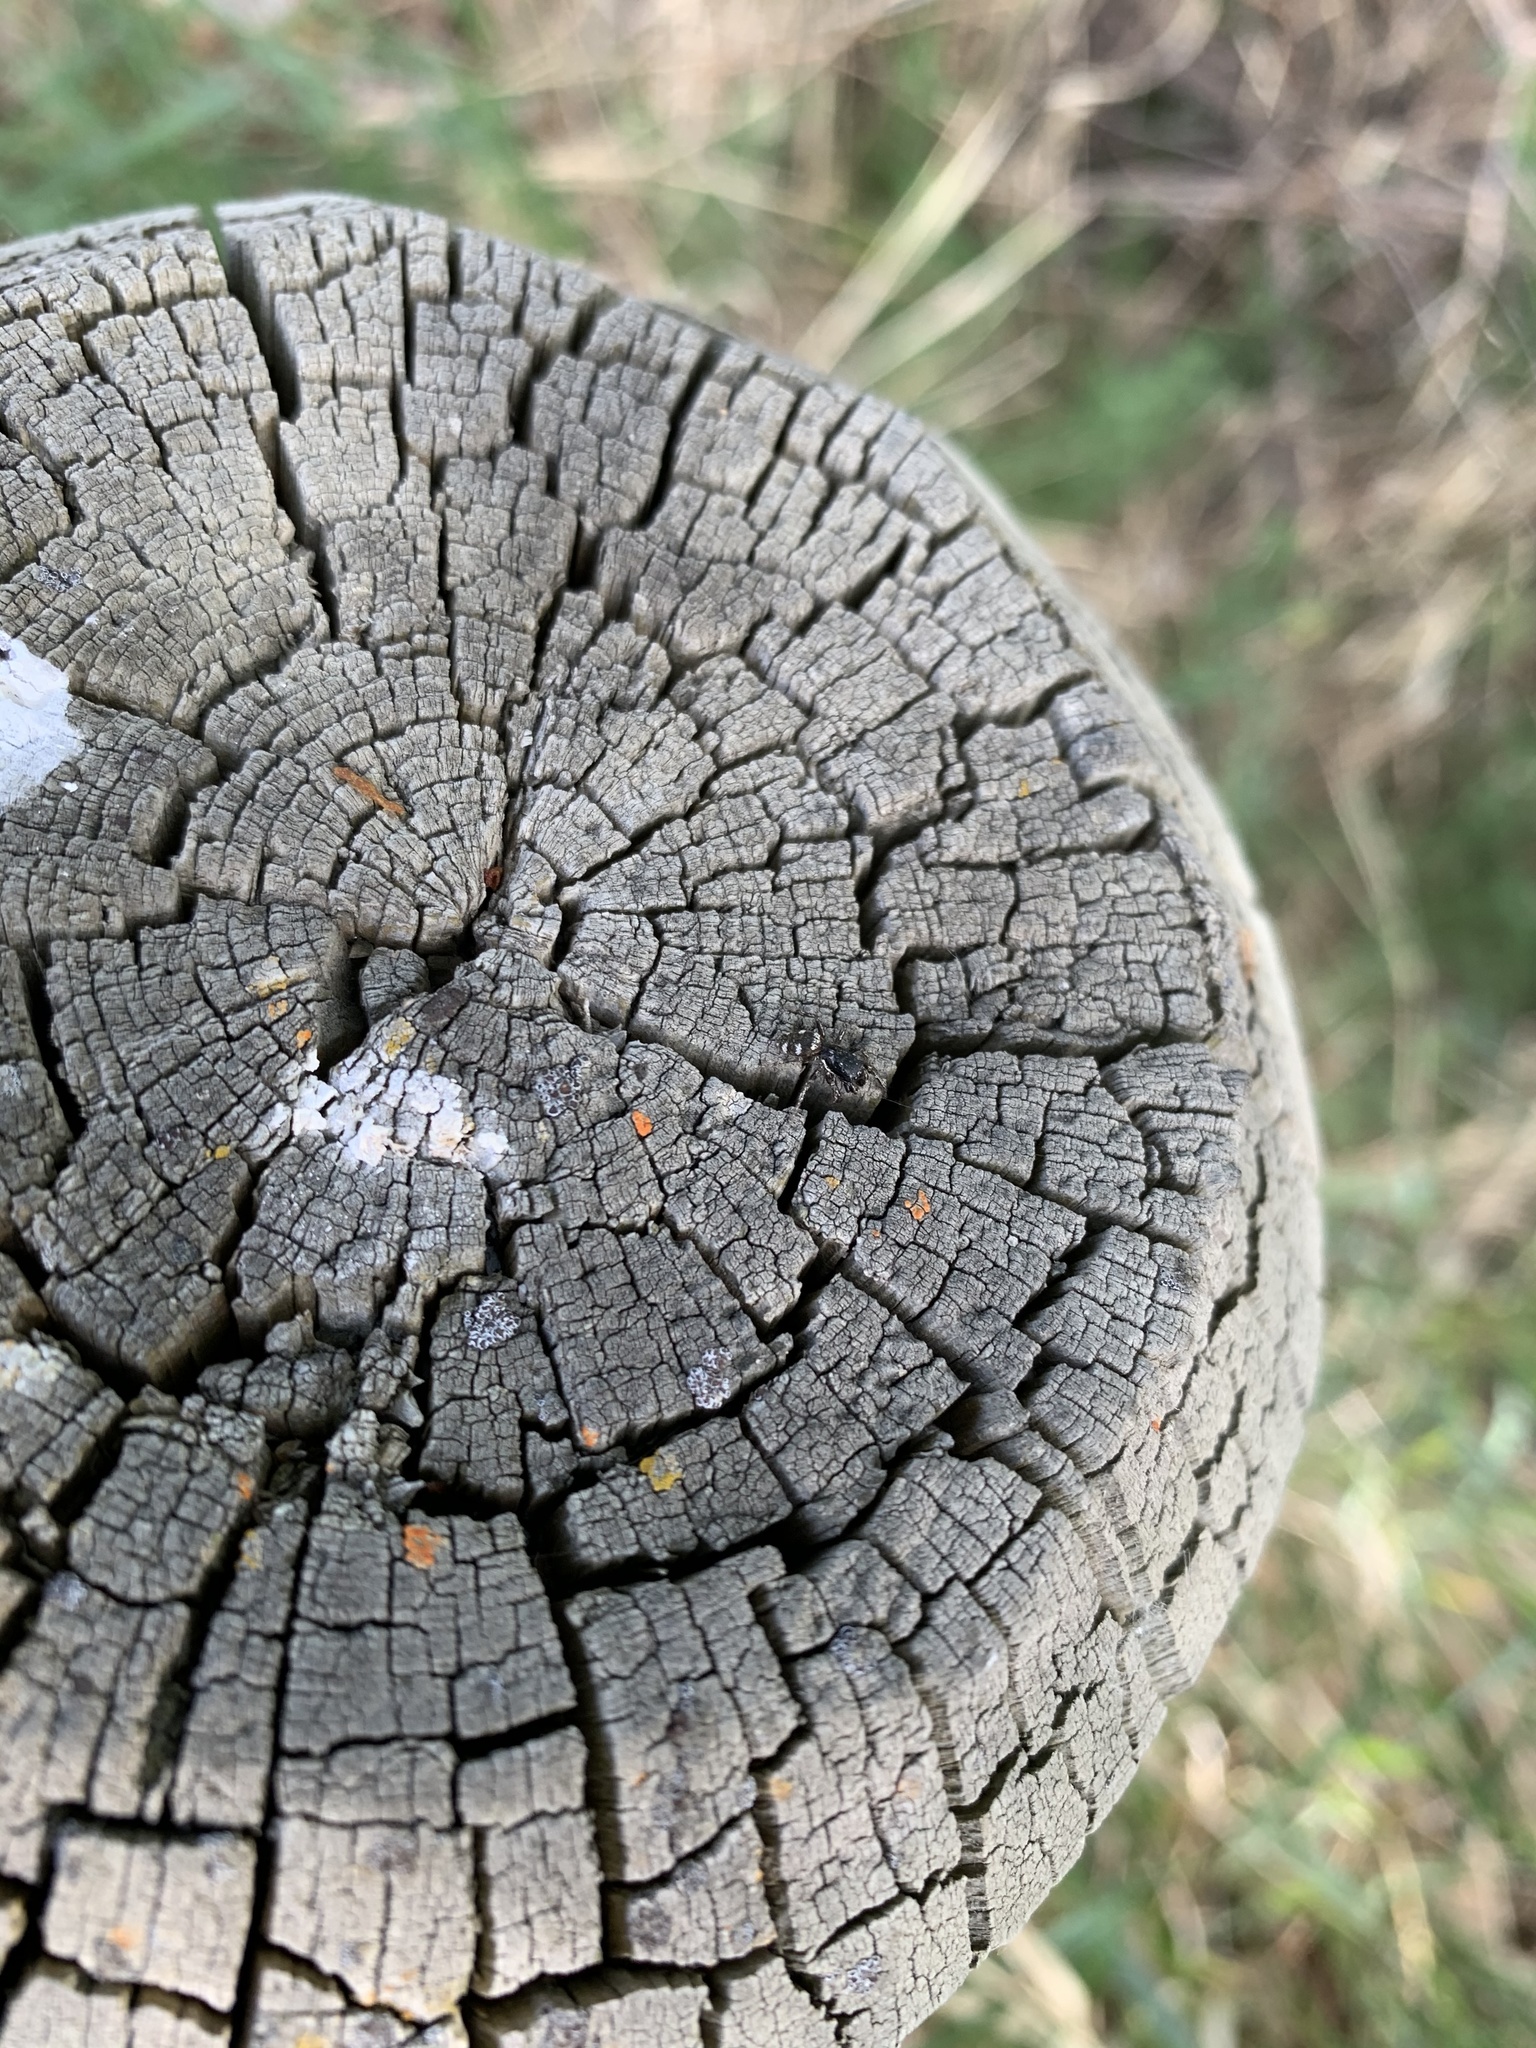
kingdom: Animalia
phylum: Arthropoda
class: Arachnida
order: Araneae
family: Salticidae
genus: Salticus
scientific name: Salticus scenicus
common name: Zebra jumper
